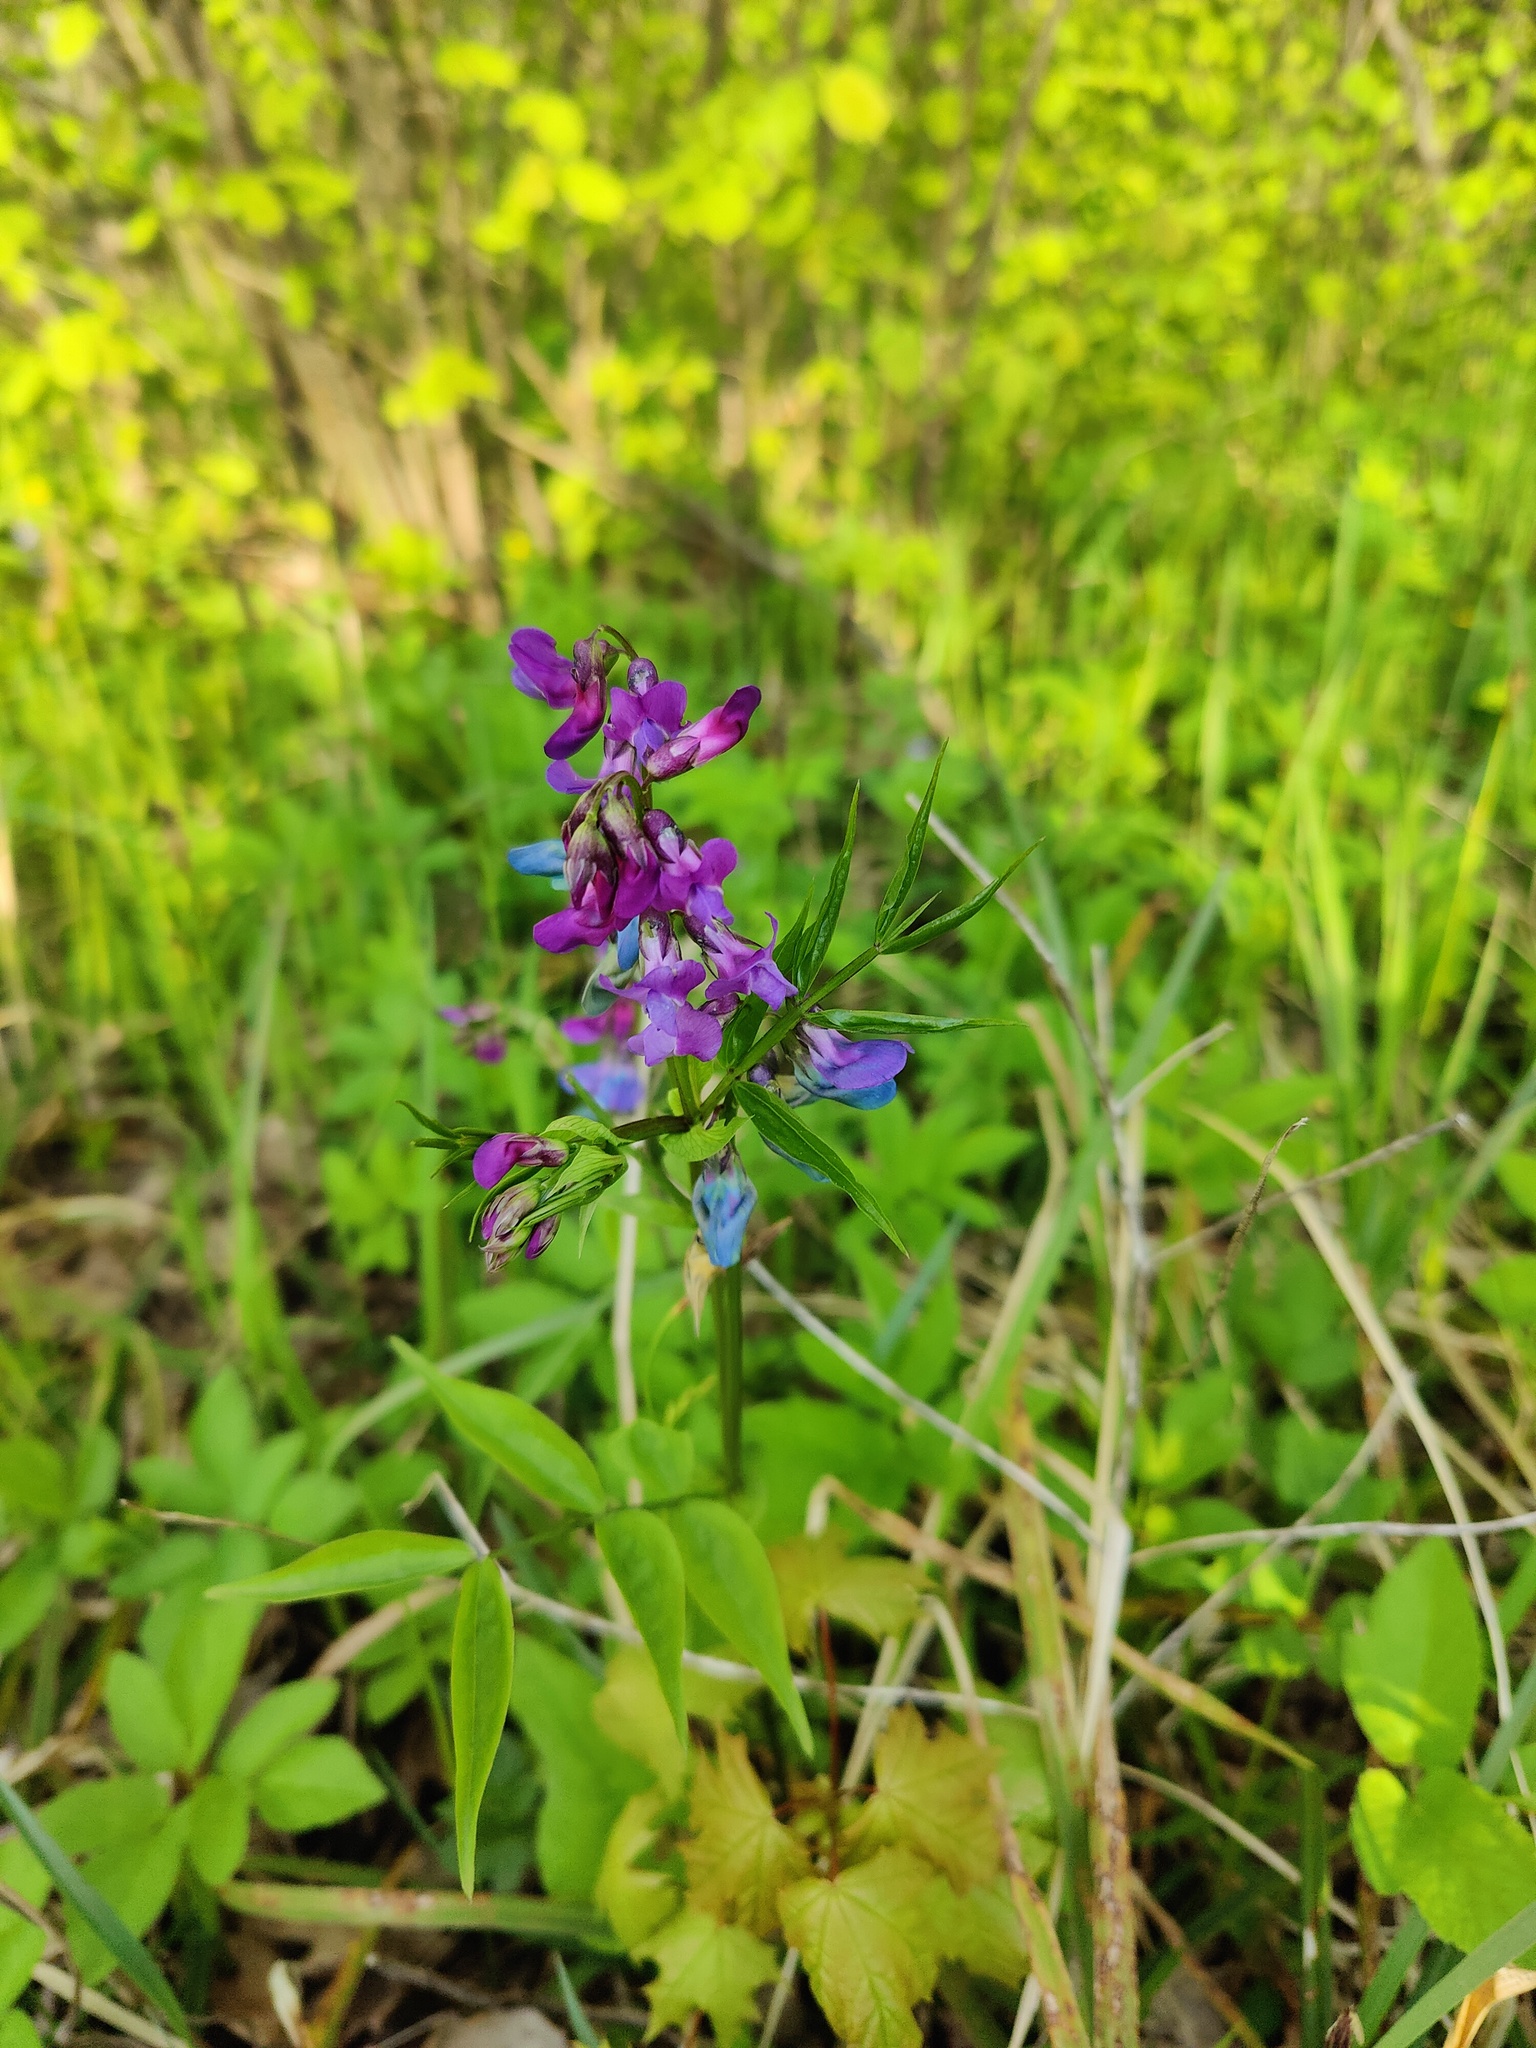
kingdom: Plantae
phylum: Tracheophyta
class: Magnoliopsida
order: Fabales
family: Fabaceae
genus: Lathyrus
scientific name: Lathyrus vernus
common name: Spring pea
